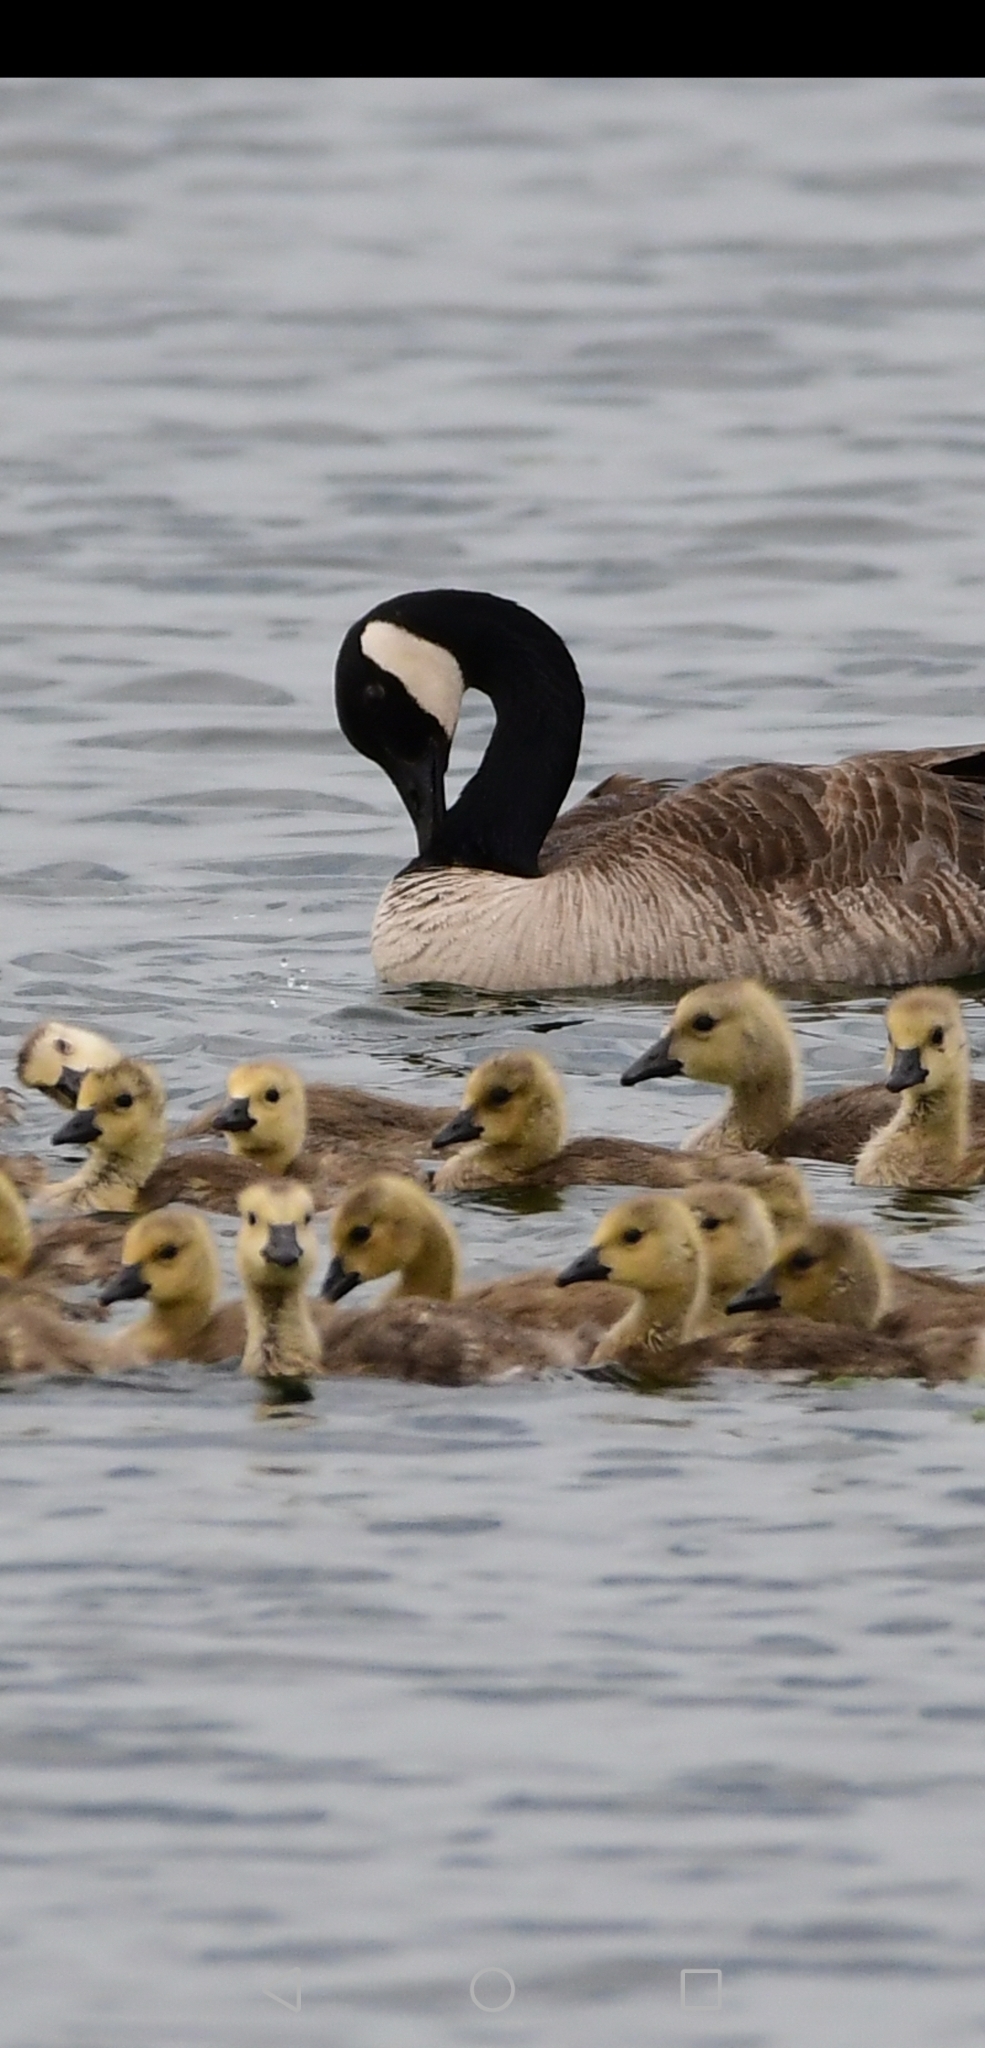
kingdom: Animalia
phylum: Chordata
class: Aves
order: Anseriformes
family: Anatidae
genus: Branta
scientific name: Branta canadensis
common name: Canada goose
